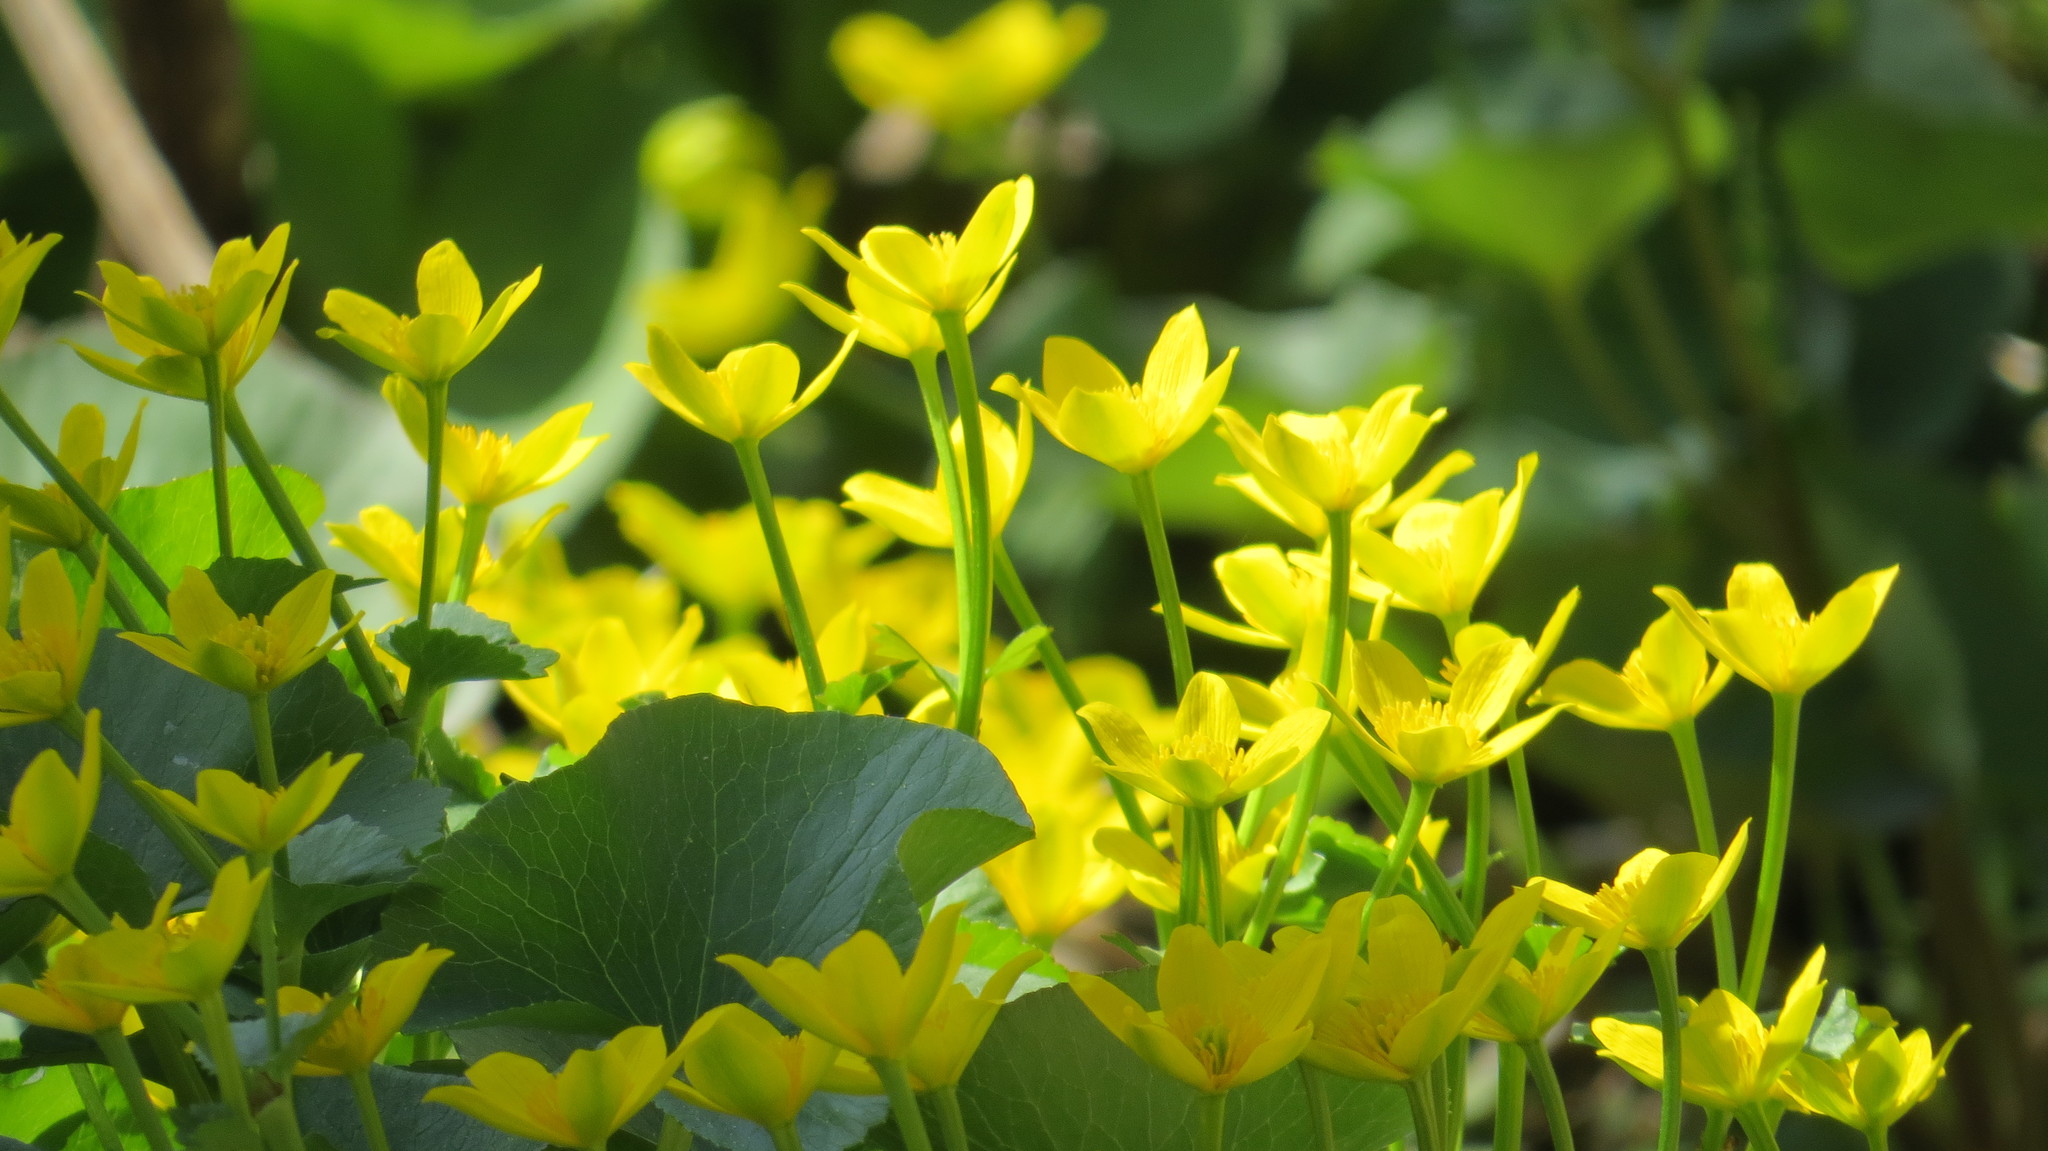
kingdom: Plantae
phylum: Tracheophyta
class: Magnoliopsida
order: Ranunculales
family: Ranunculaceae
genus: Caltha
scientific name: Caltha palustris
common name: Marsh marigold
